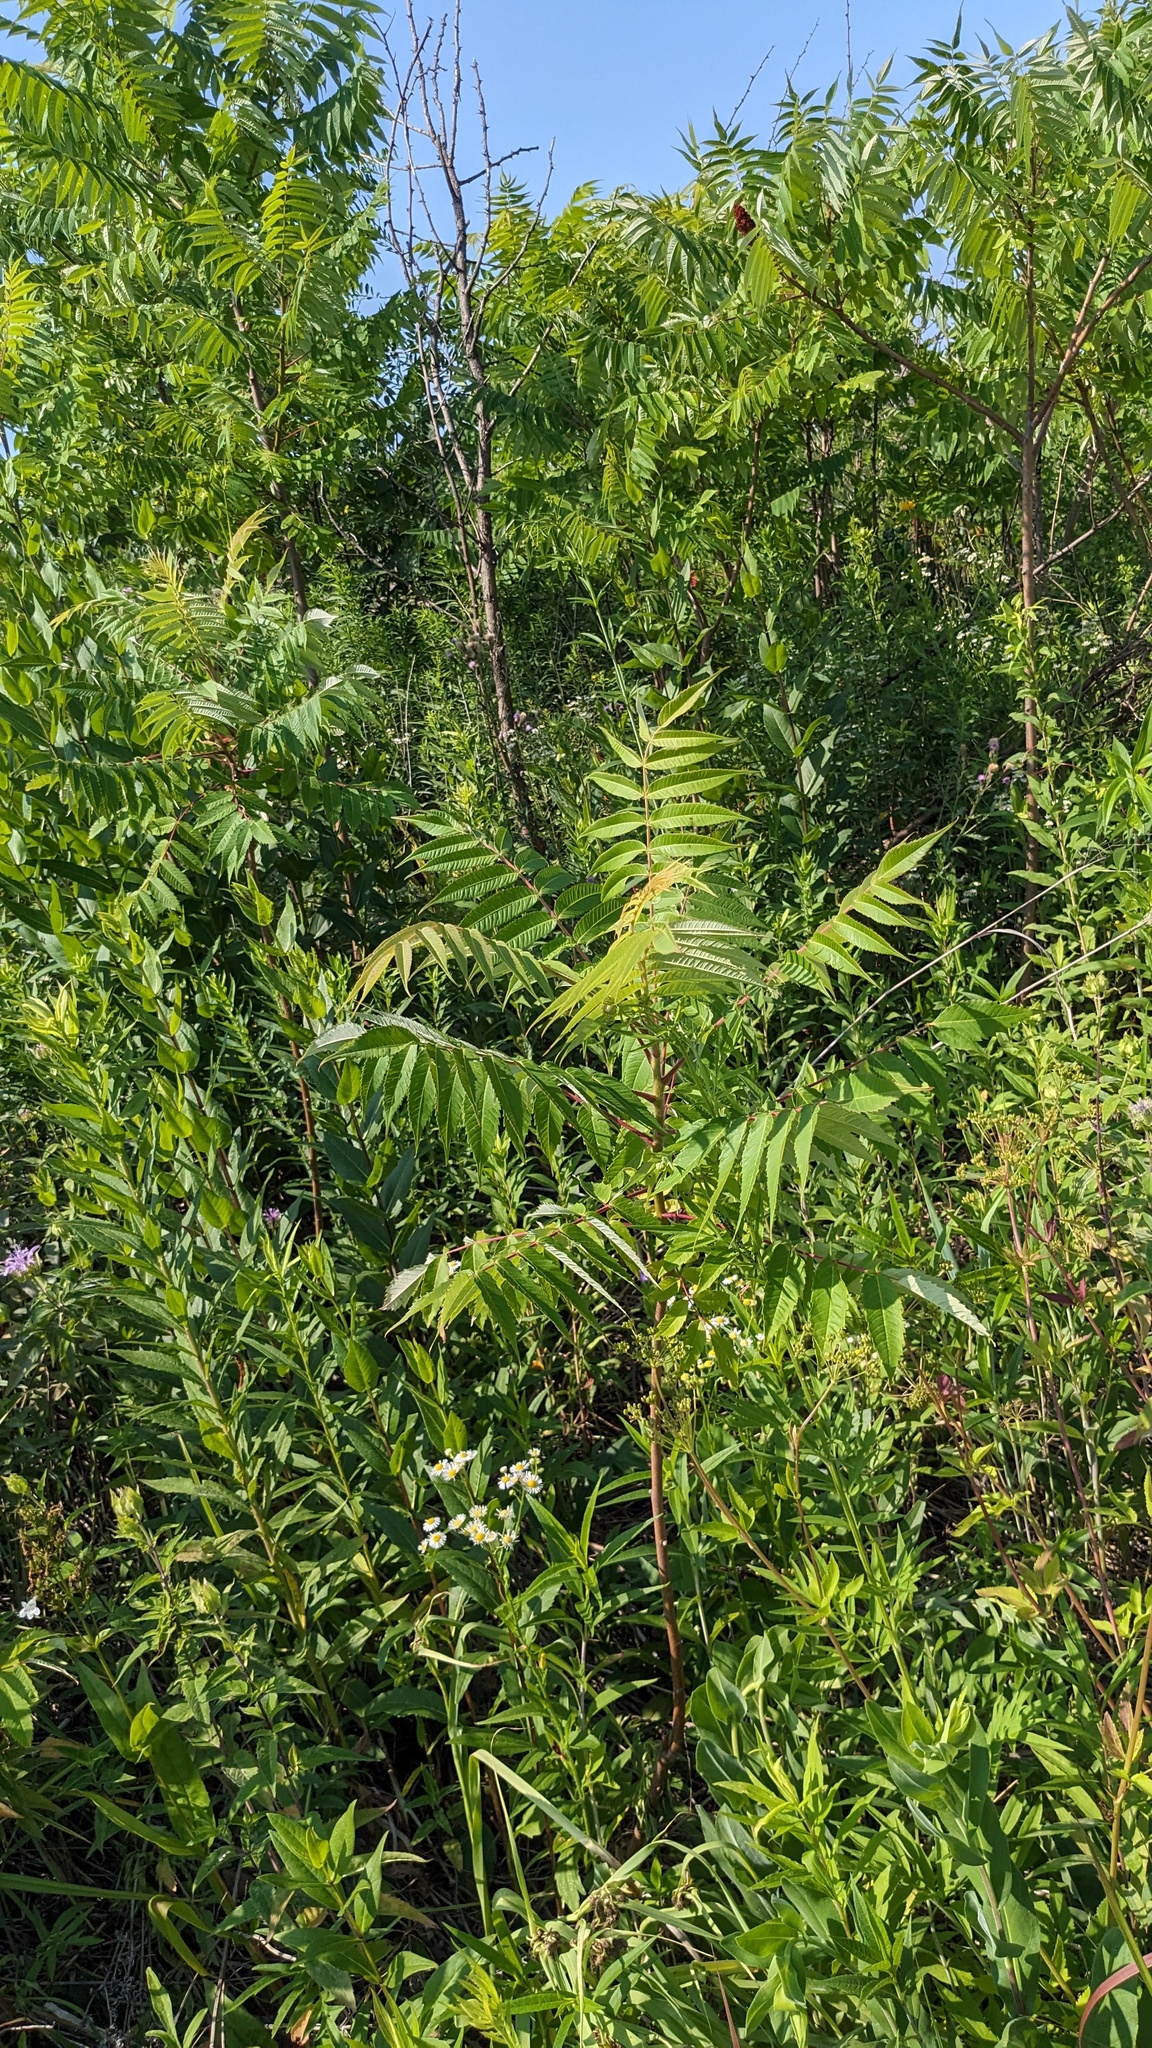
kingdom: Plantae
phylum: Tracheophyta
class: Magnoliopsida
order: Sapindales
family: Anacardiaceae
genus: Rhus
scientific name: Rhus typhina
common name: Staghorn sumac
